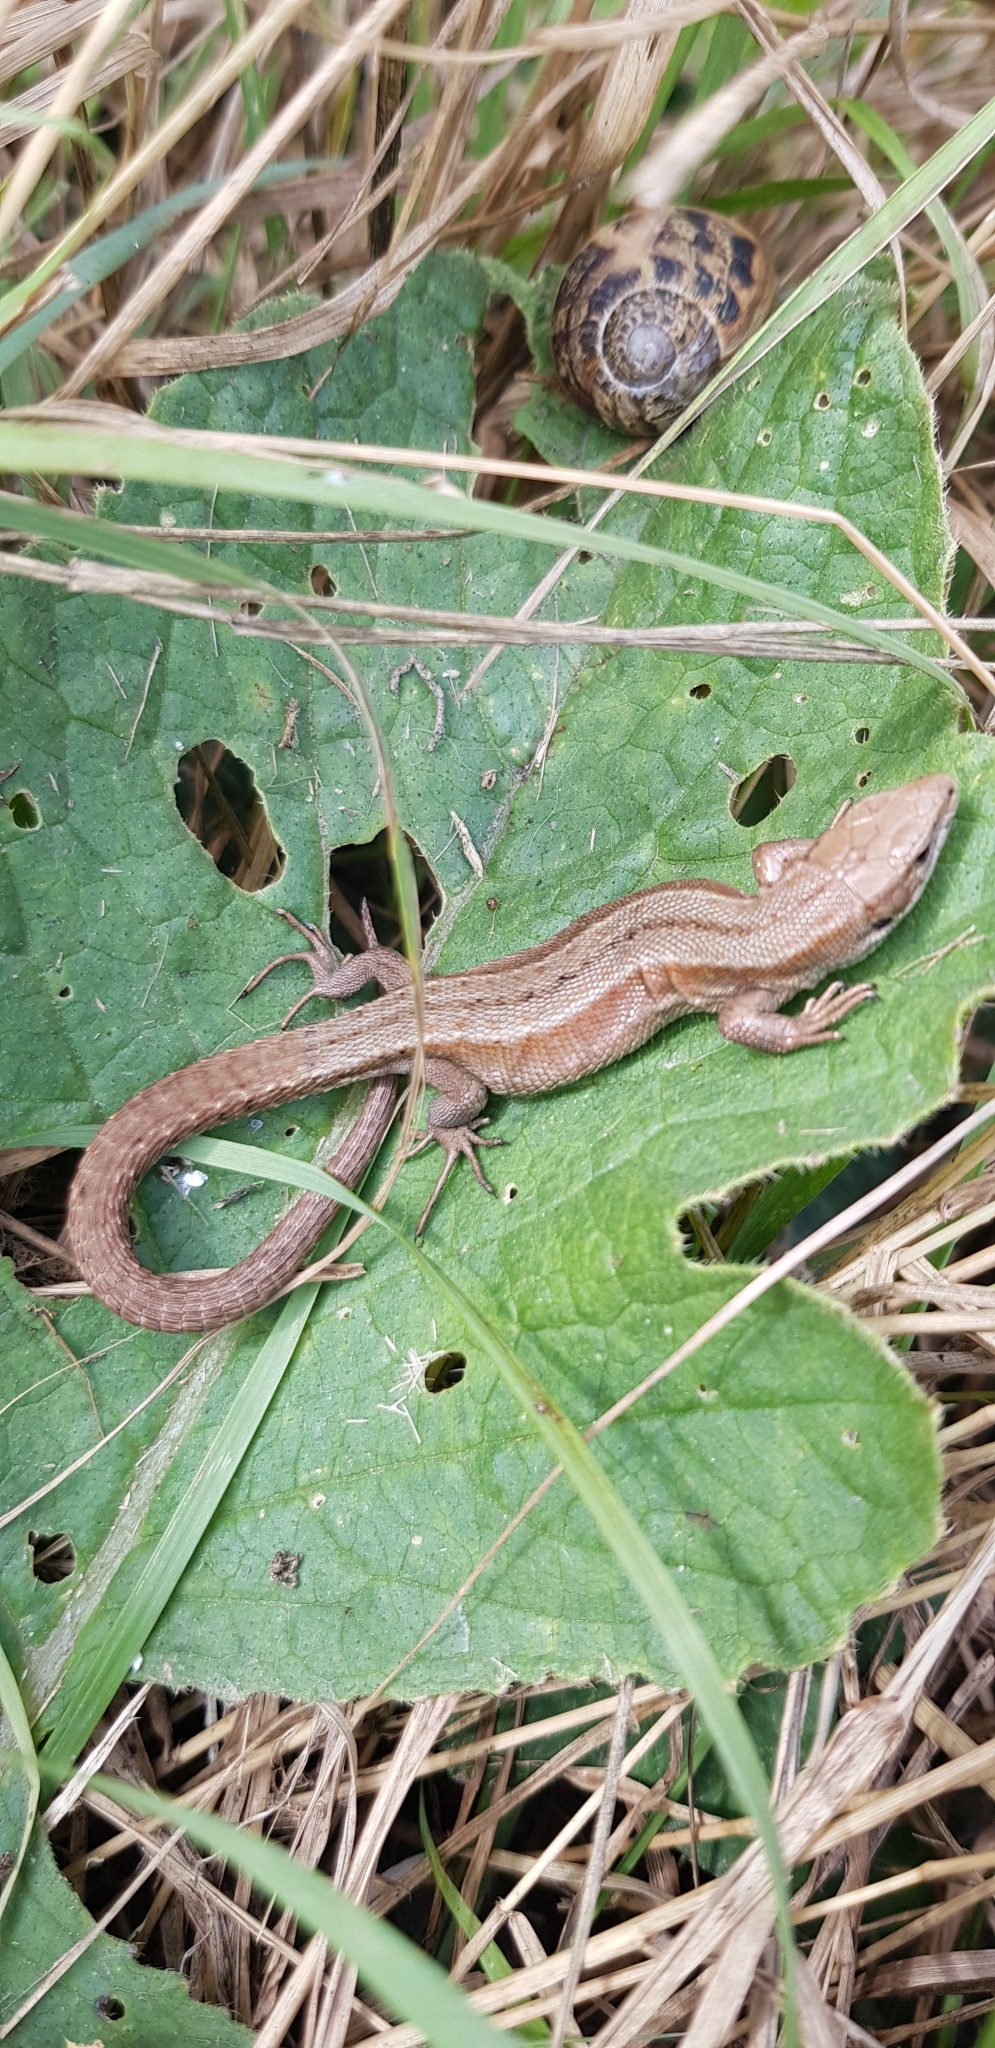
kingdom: Animalia
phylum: Chordata
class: Squamata
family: Lacertidae
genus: Zootoca
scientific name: Zootoca vivipara
